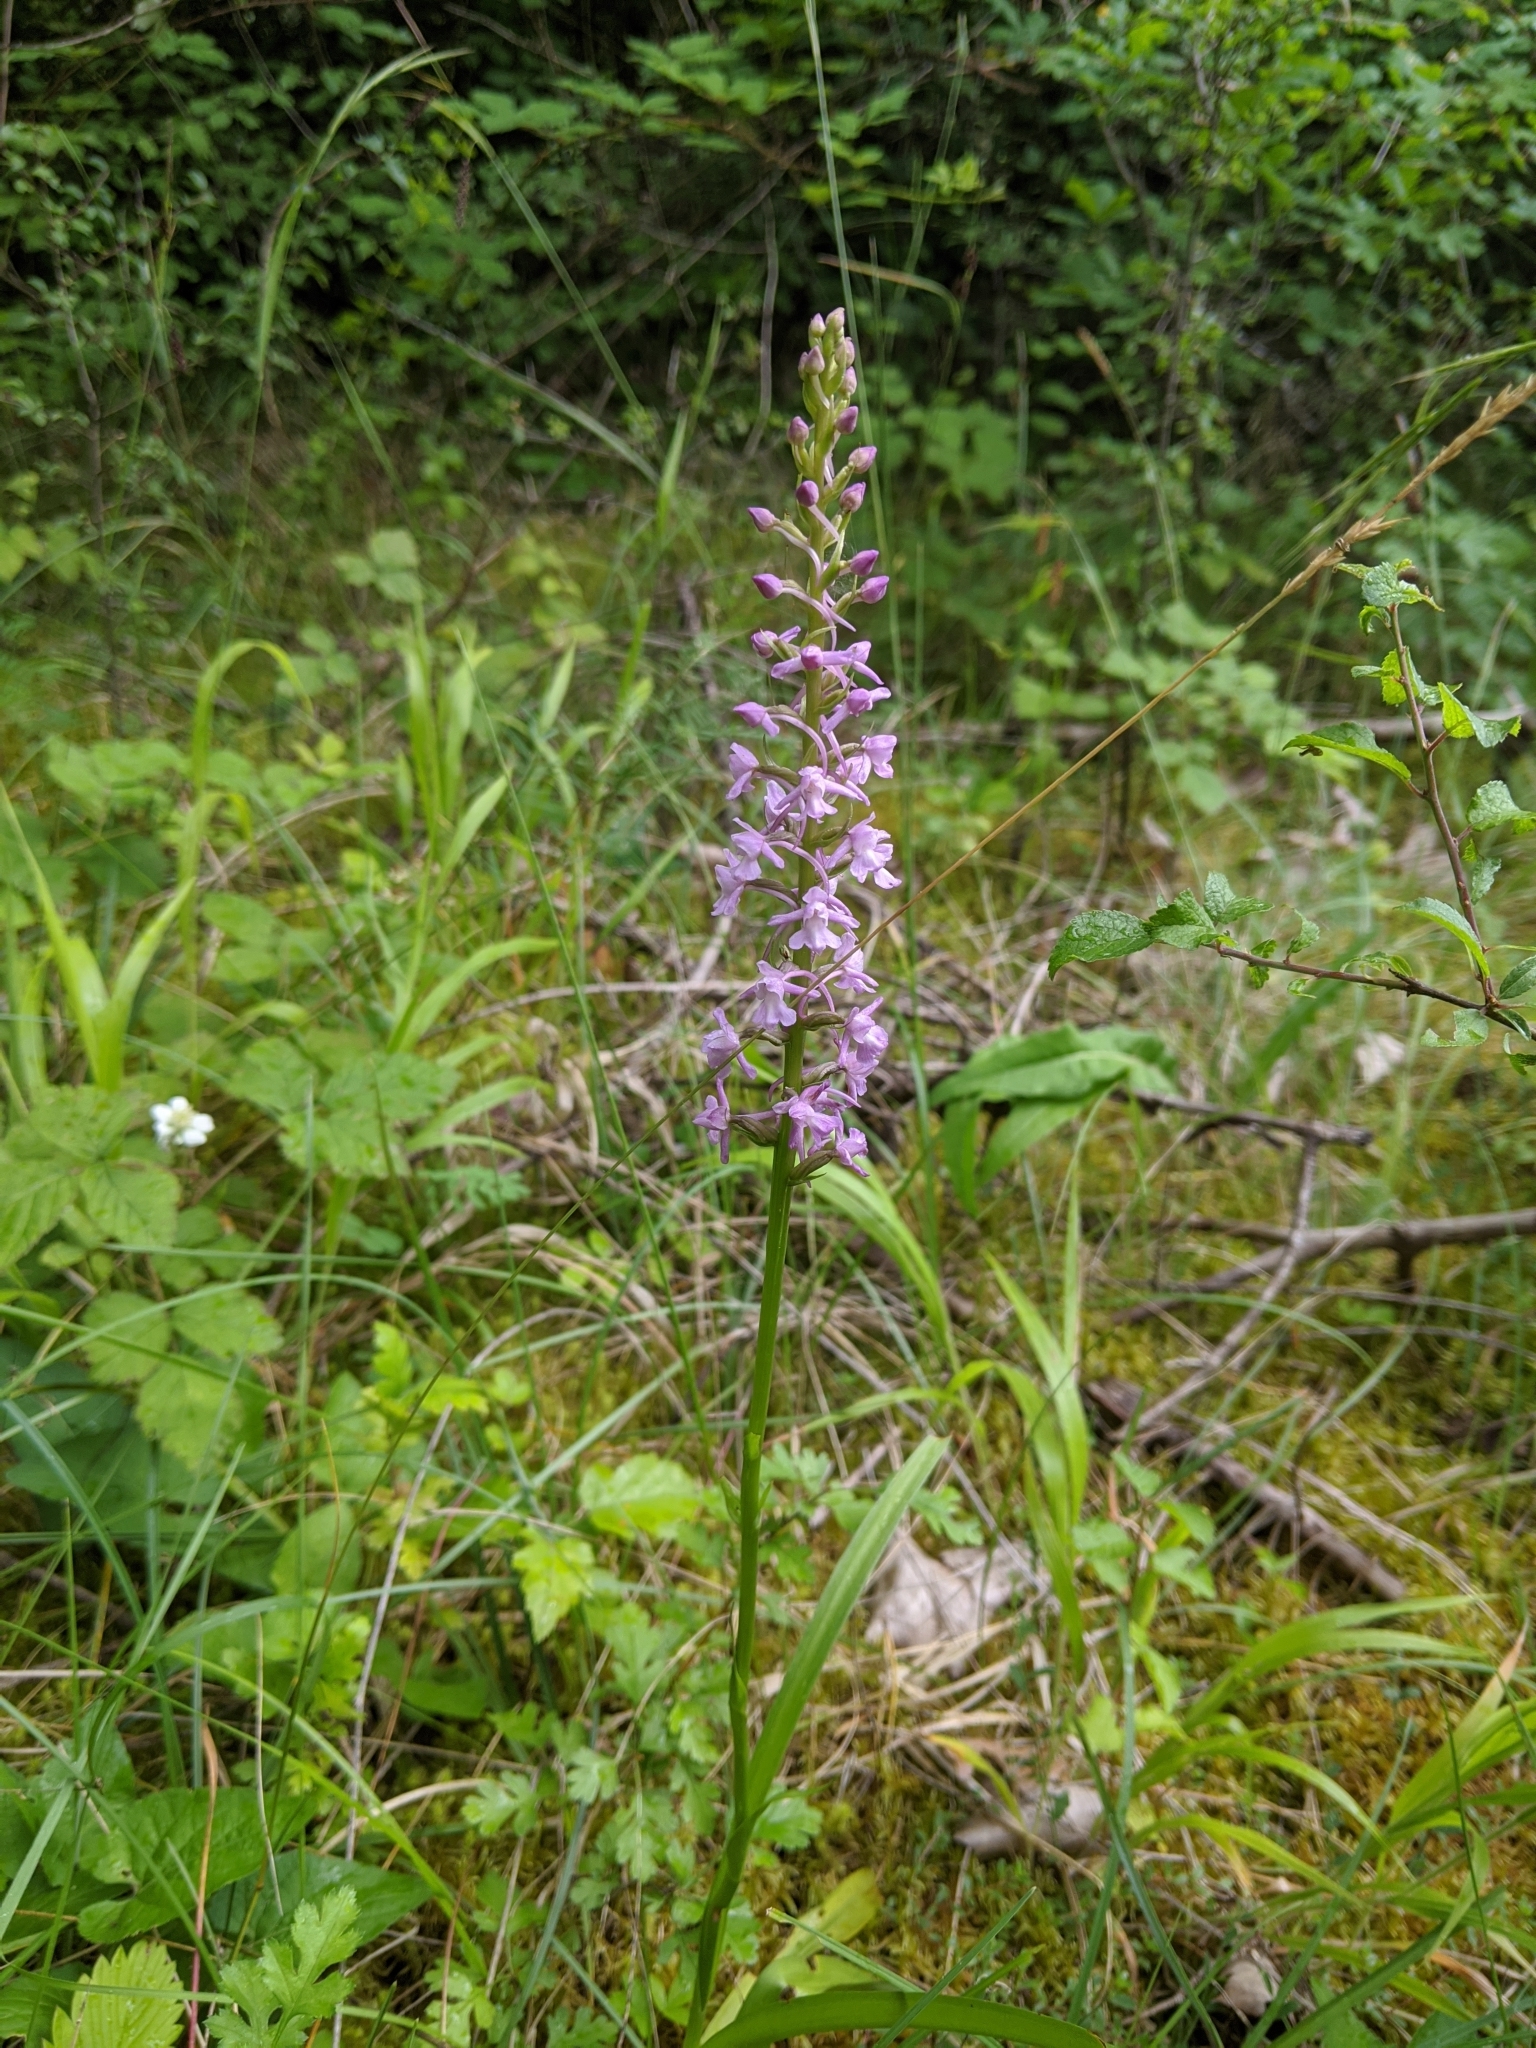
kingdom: Plantae
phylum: Tracheophyta
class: Liliopsida
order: Asparagales
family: Orchidaceae
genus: Gymnadenia
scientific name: Gymnadenia conopsea
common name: Fragrant orchid
